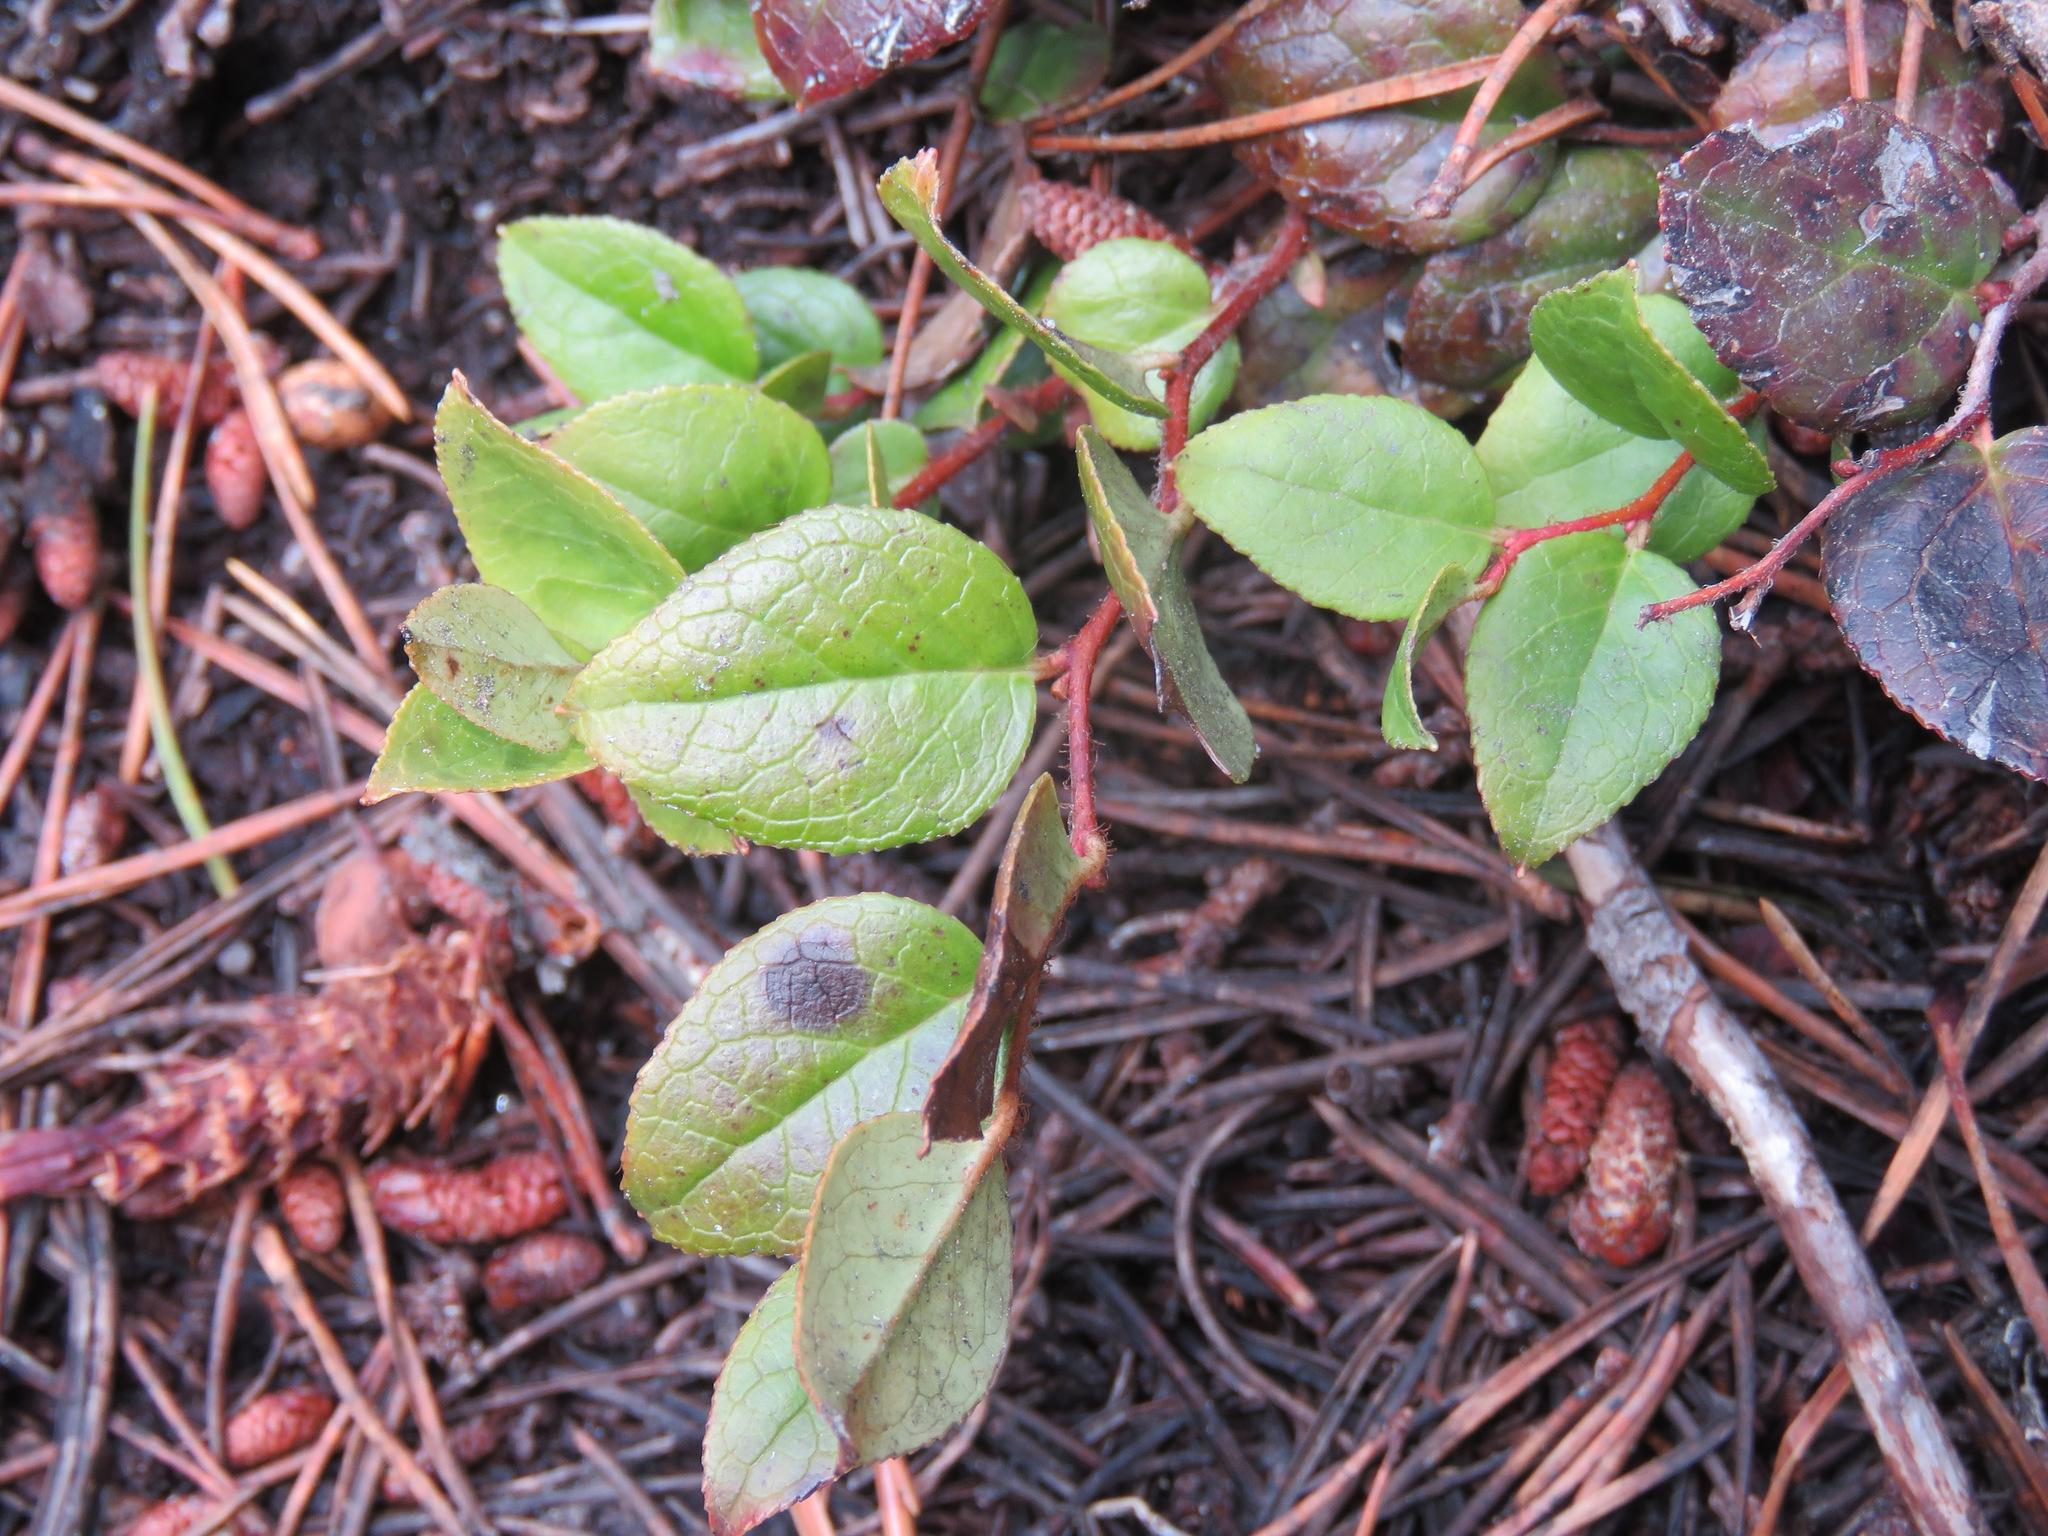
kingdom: Plantae
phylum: Tracheophyta
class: Magnoliopsida
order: Ericales
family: Ericaceae
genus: Gaultheria
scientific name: Gaultheria shallon
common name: Shallon
